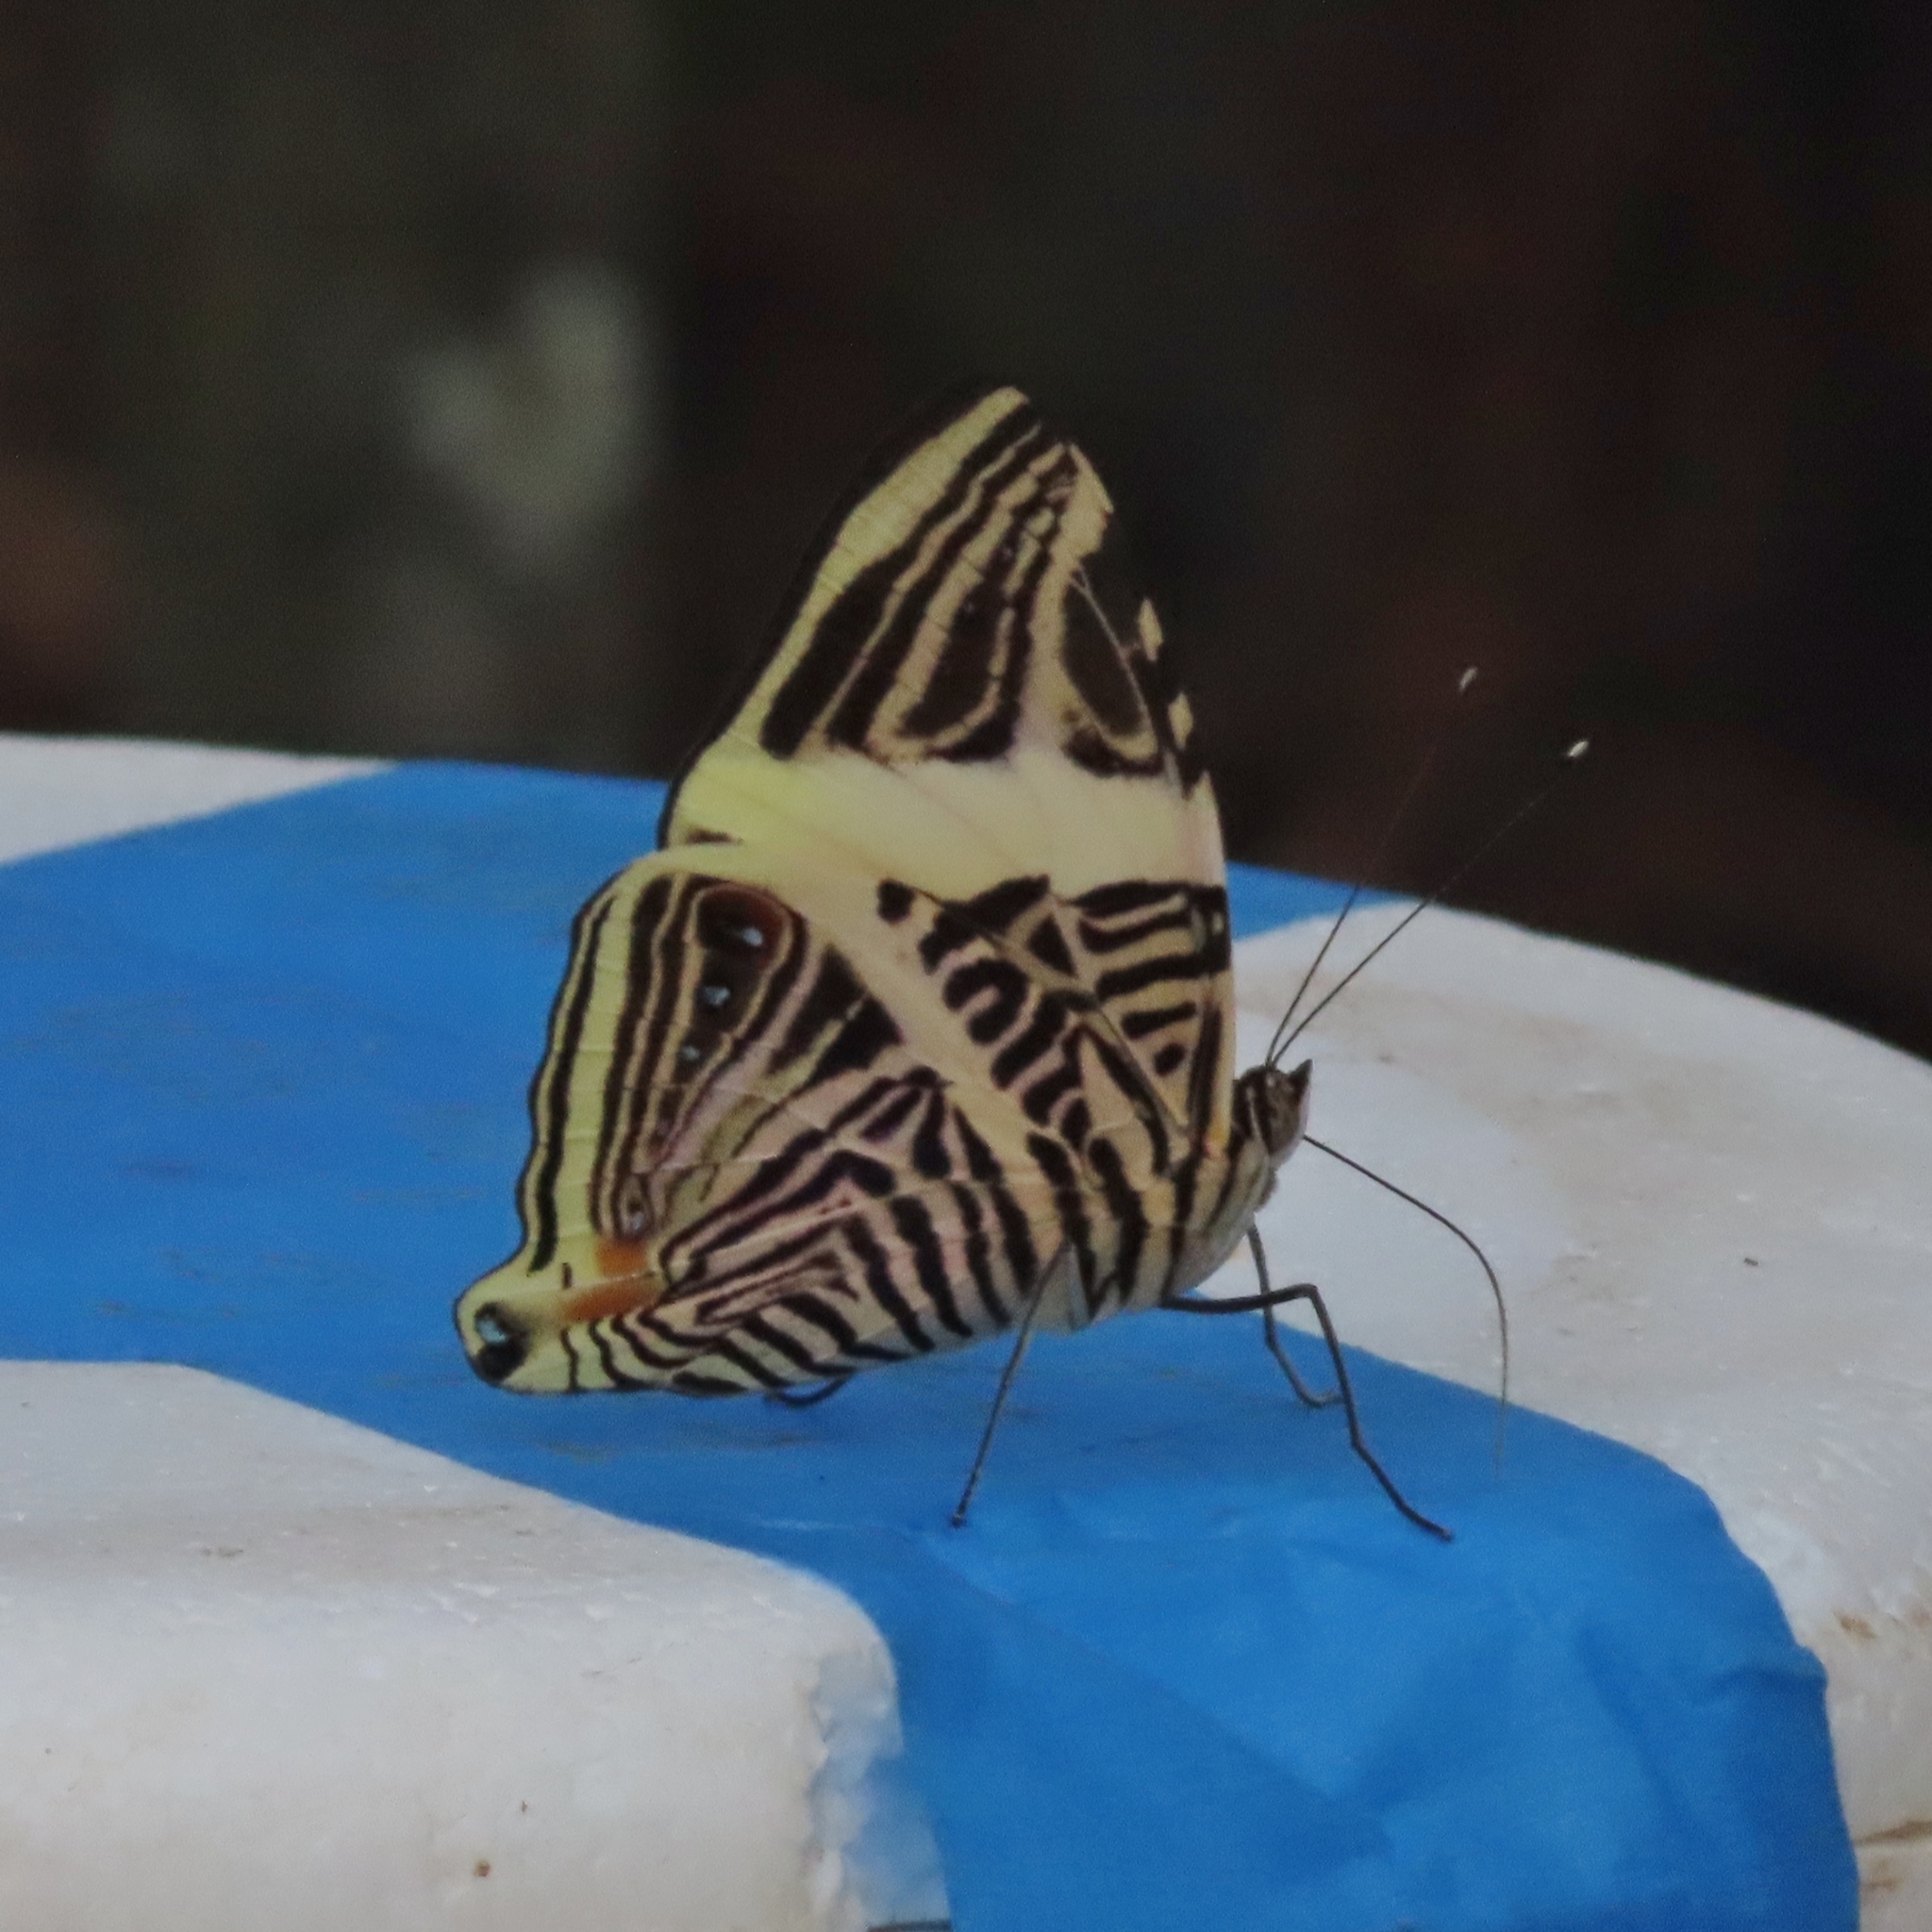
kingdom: Animalia
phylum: Arthropoda
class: Insecta
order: Lepidoptera
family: Nymphalidae
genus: Colobura
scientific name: Colobura dirce
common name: Dirce beauty
